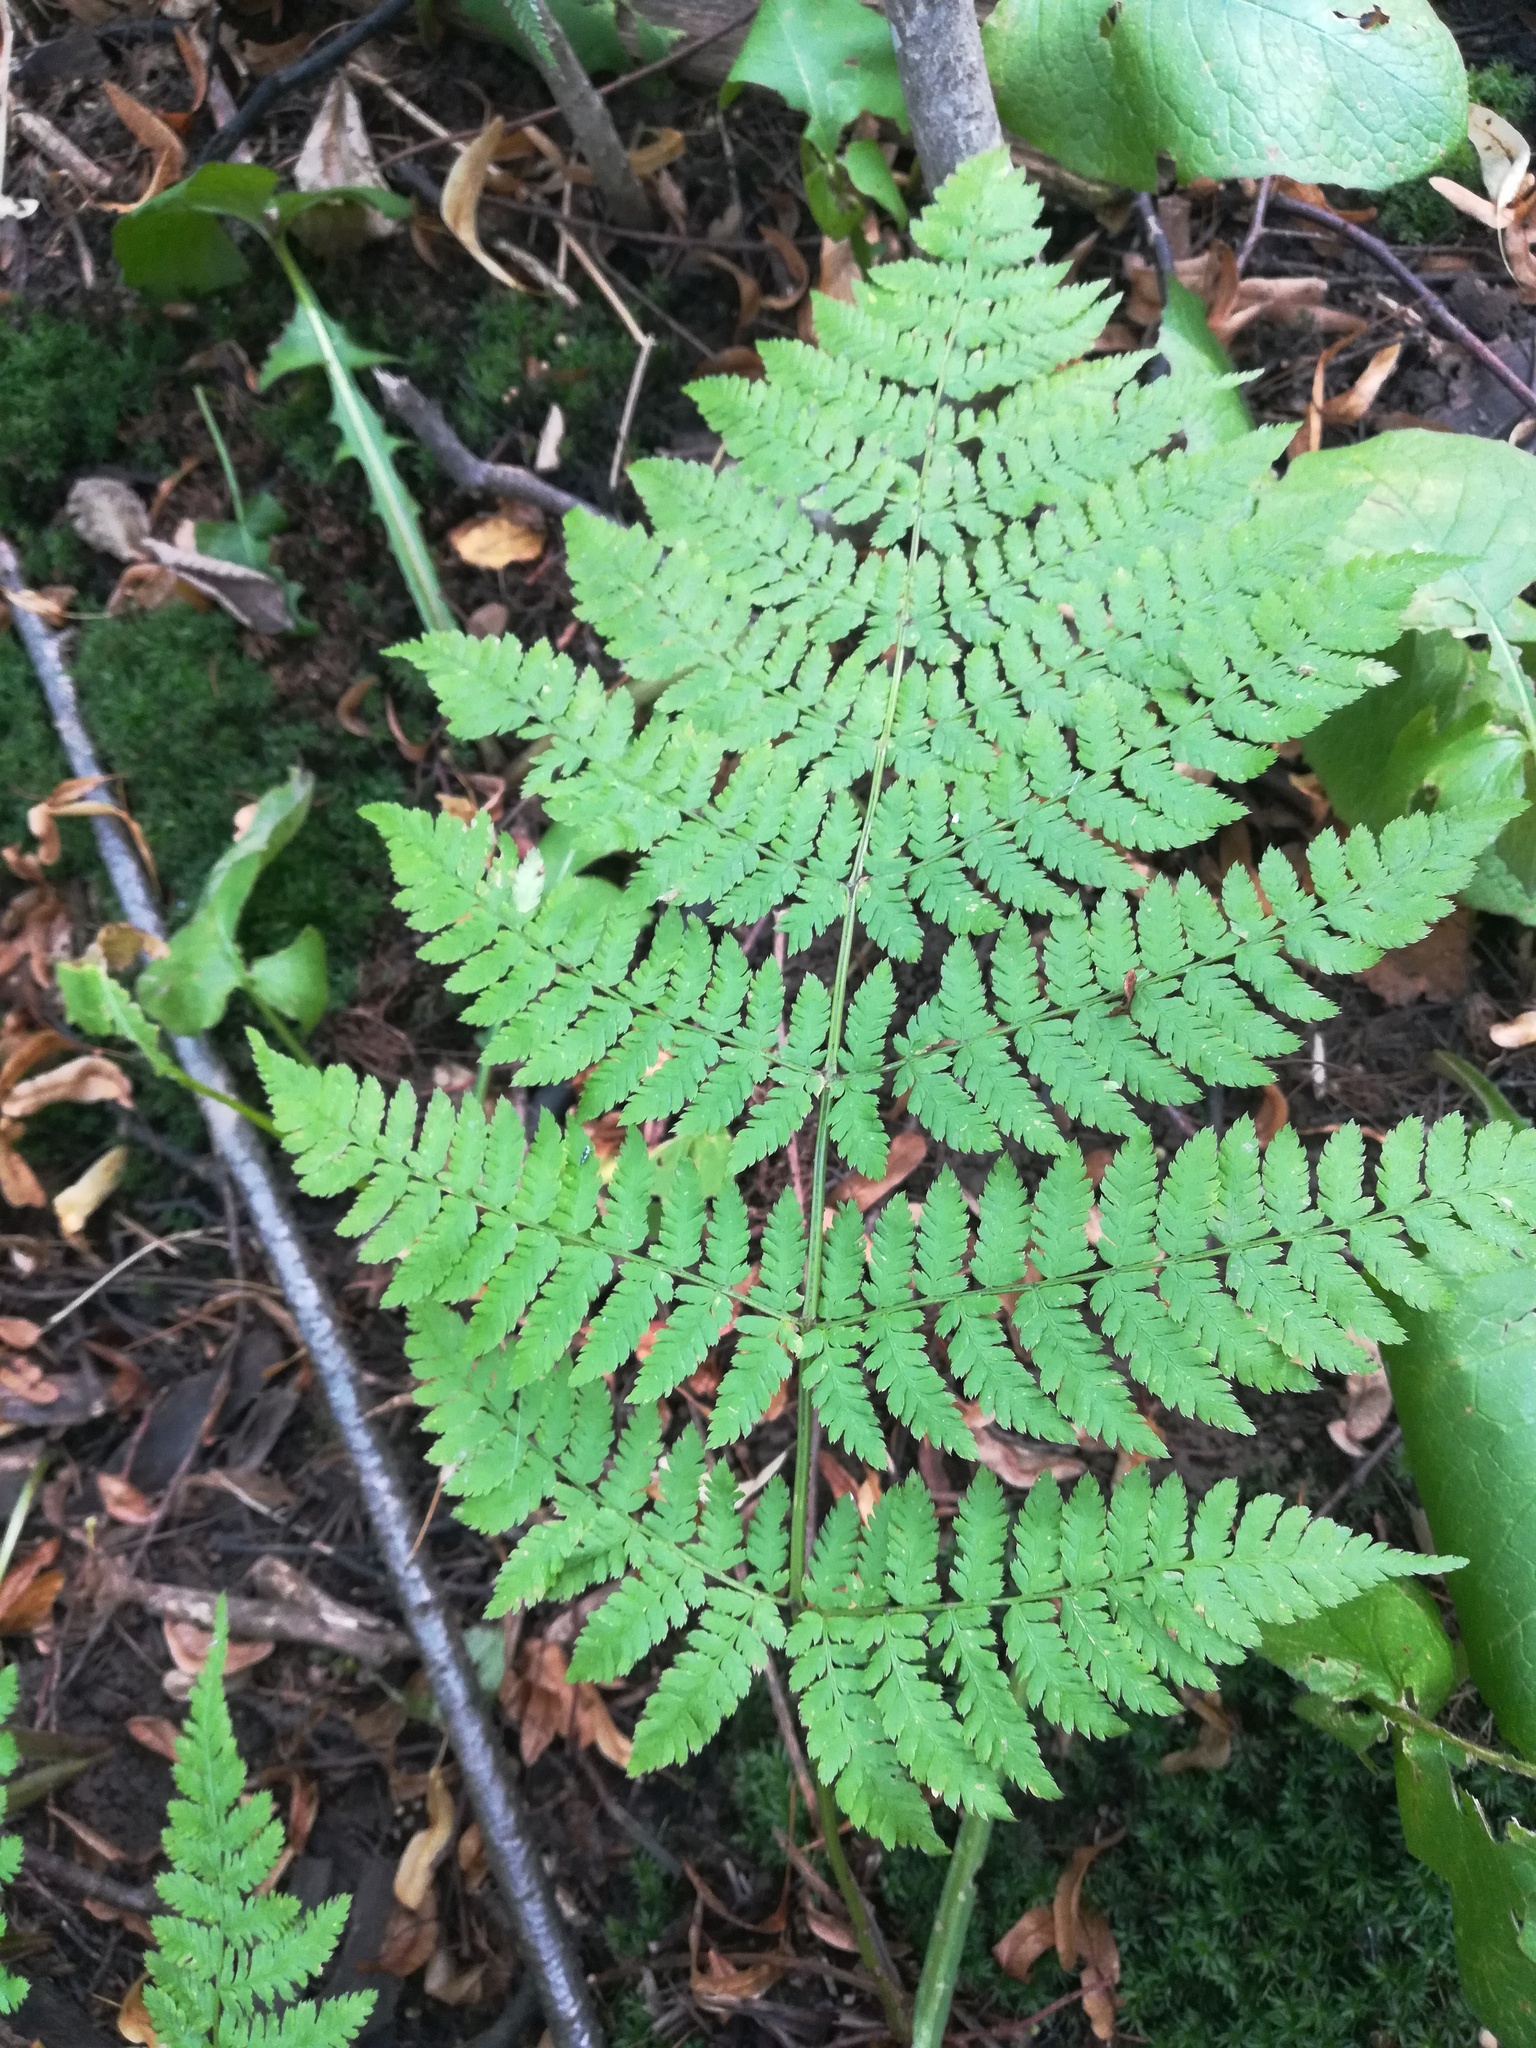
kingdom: Plantae
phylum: Tracheophyta
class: Polypodiopsida
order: Polypodiales
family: Dryopteridaceae
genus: Dryopteris
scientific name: Dryopteris carthusiana
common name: Narrow buckler-fern
